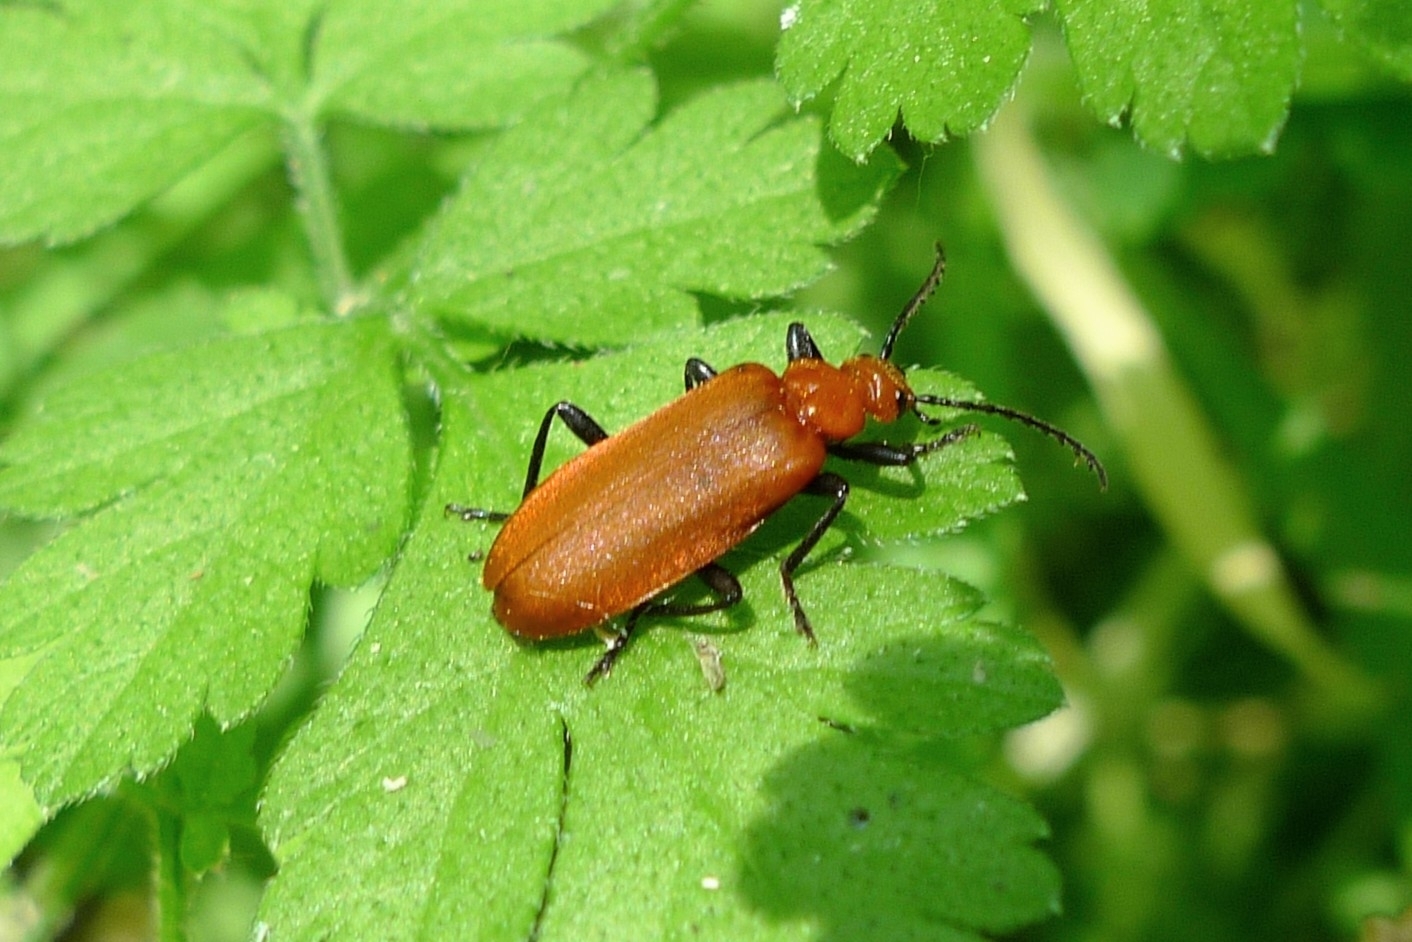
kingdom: Animalia
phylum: Arthropoda
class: Insecta
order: Coleoptera
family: Pyrochroidae
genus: Pyrochroa
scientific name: Pyrochroa serraticornis
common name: Red-headed cardinal beetle
